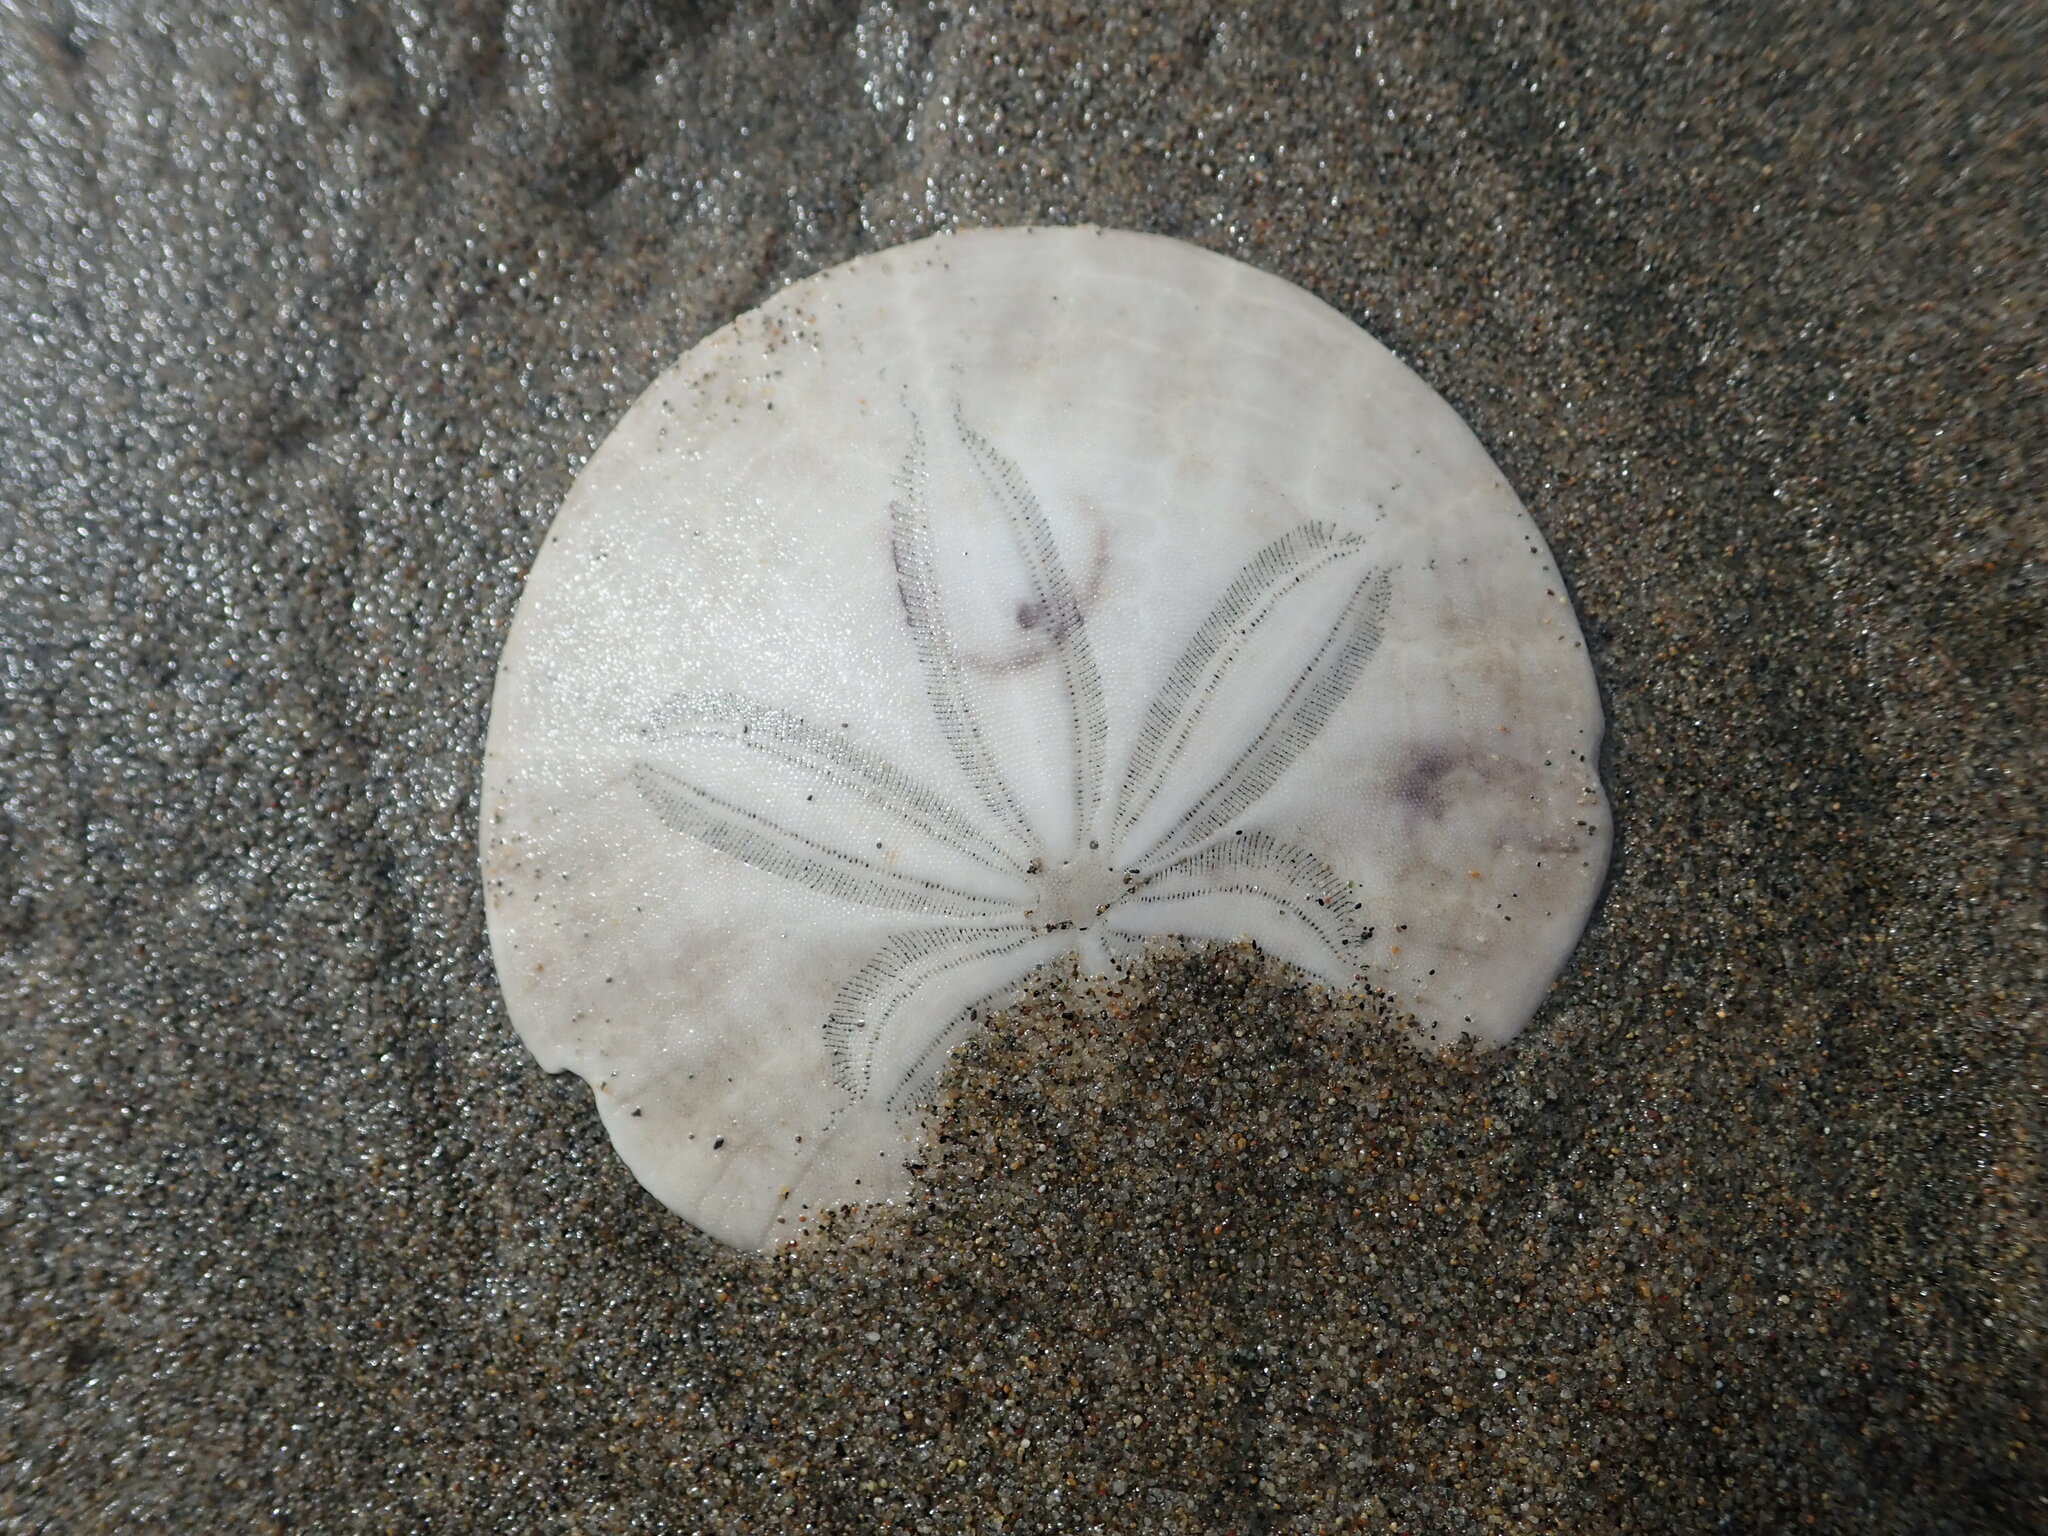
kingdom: Animalia
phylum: Echinodermata
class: Echinoidea
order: Echinolampadacea
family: Dendrasteridae
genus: Dendraster
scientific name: Dendraster excentricus
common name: Eccentric sand dollar sea urchin
